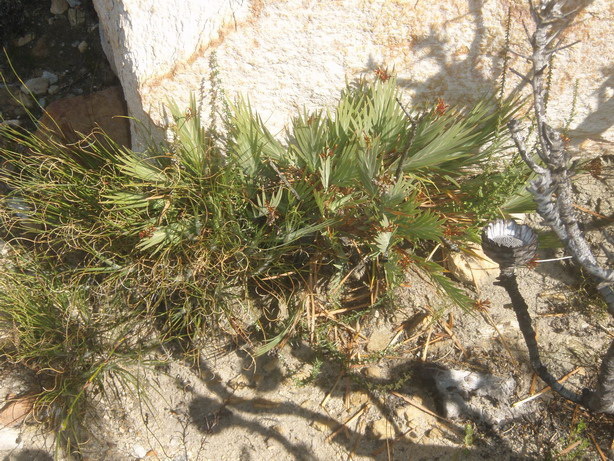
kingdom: Plantae
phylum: Tracheophyta
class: Liliopsida
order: Asparagales
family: Iridaceae
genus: Nivenia
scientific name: Nivenia binata
